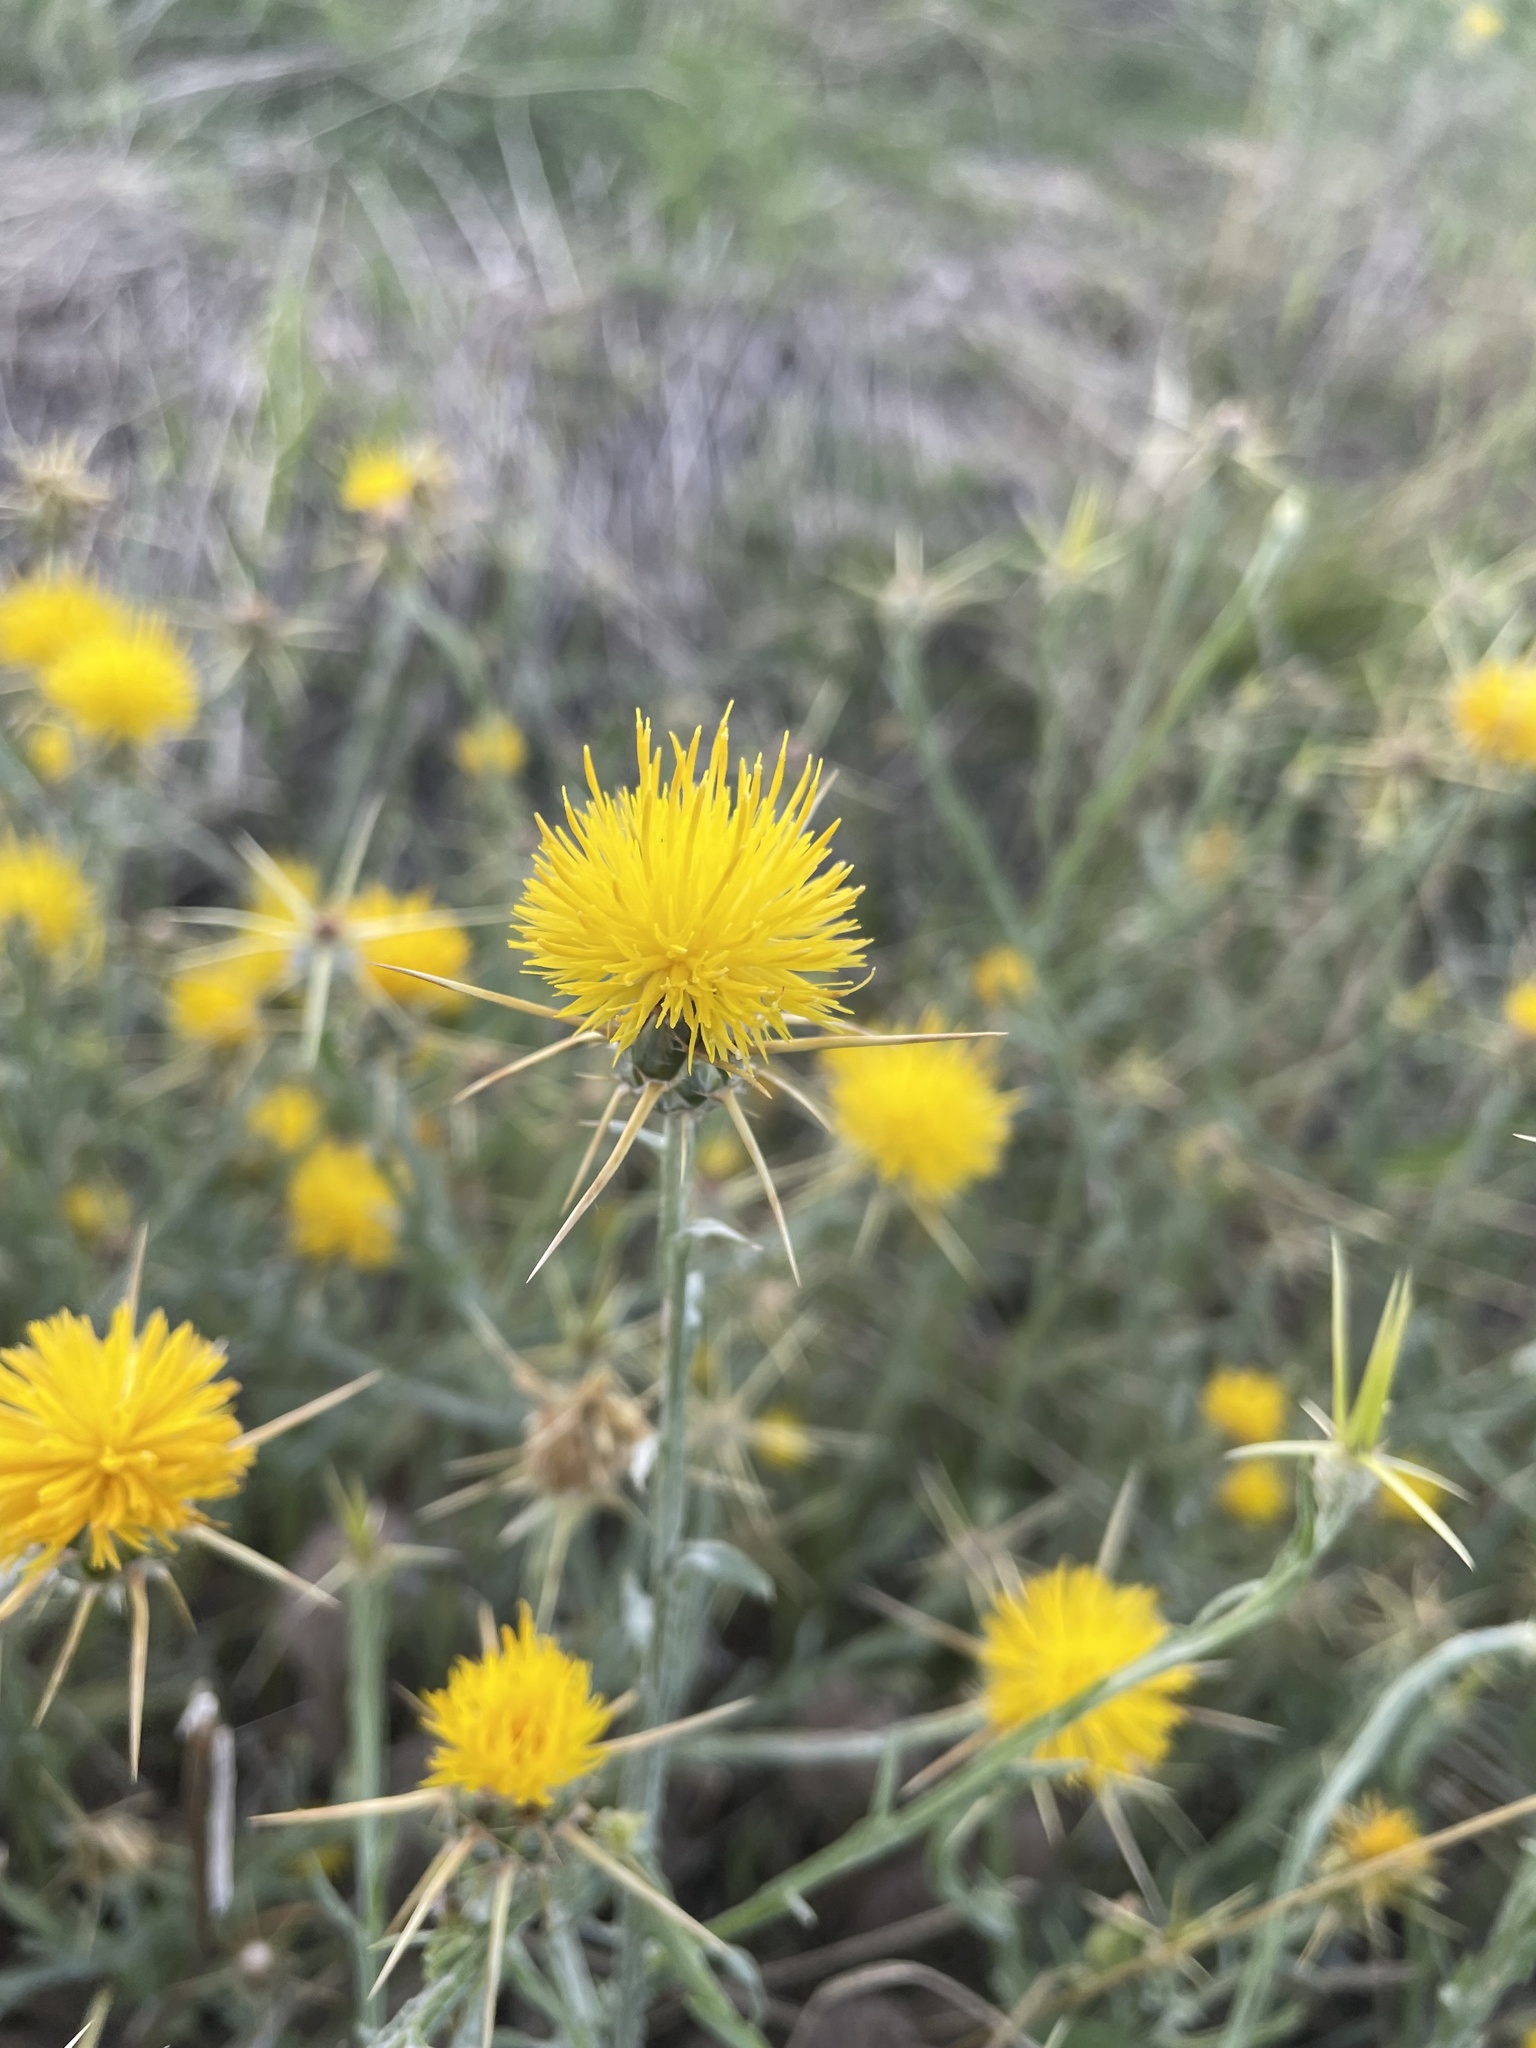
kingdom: Plantae
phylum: Tracheophyta
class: Magnoliopsida
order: Asterales
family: Asteraceae
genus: Centaurea
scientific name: Centaurea solstitialis
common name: Yellow star-thistle
